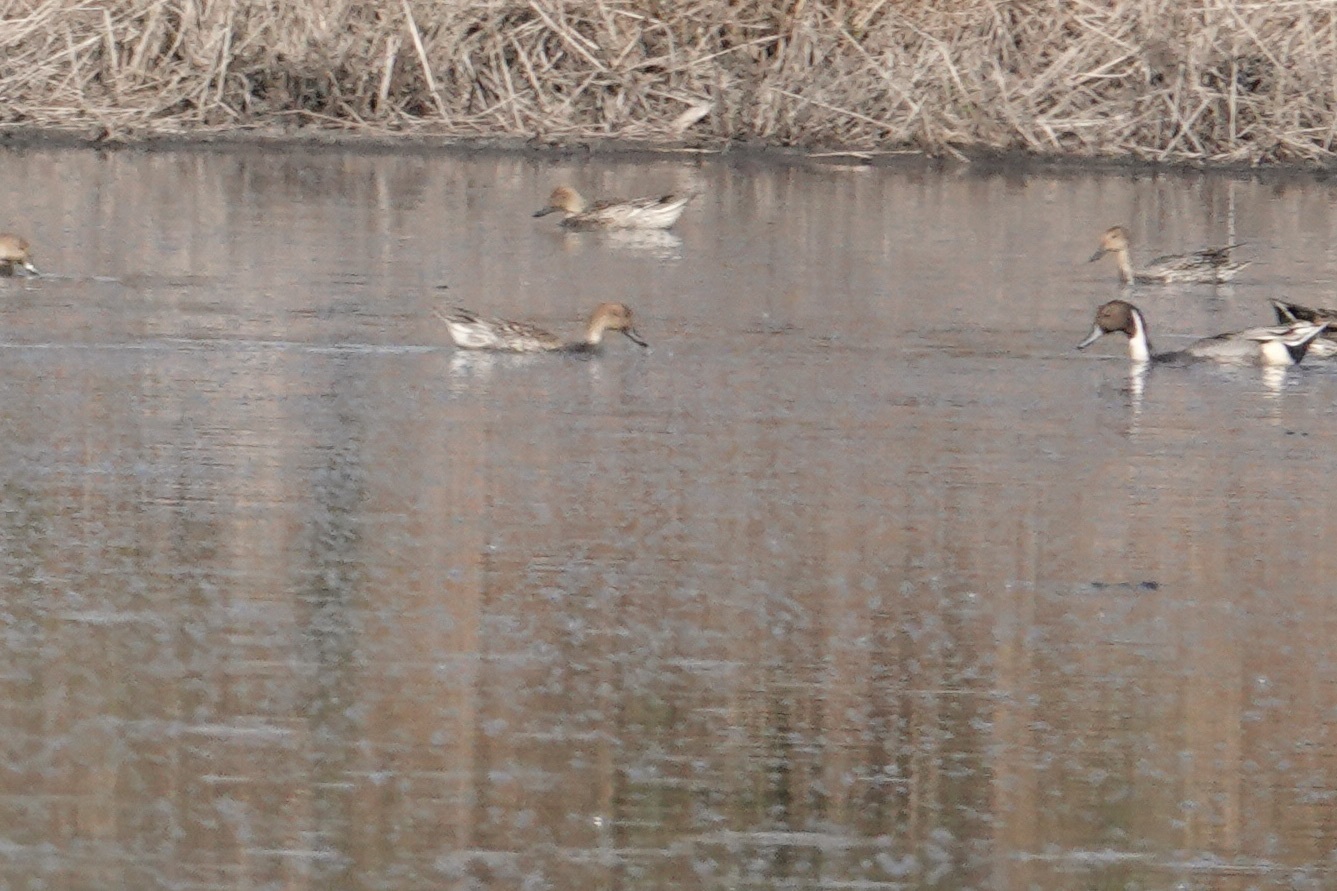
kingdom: Animalia
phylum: Chordata
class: Aves
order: Anseriformes
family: Anatidae
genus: Anas
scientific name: Anas acuta
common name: Northern pintail
